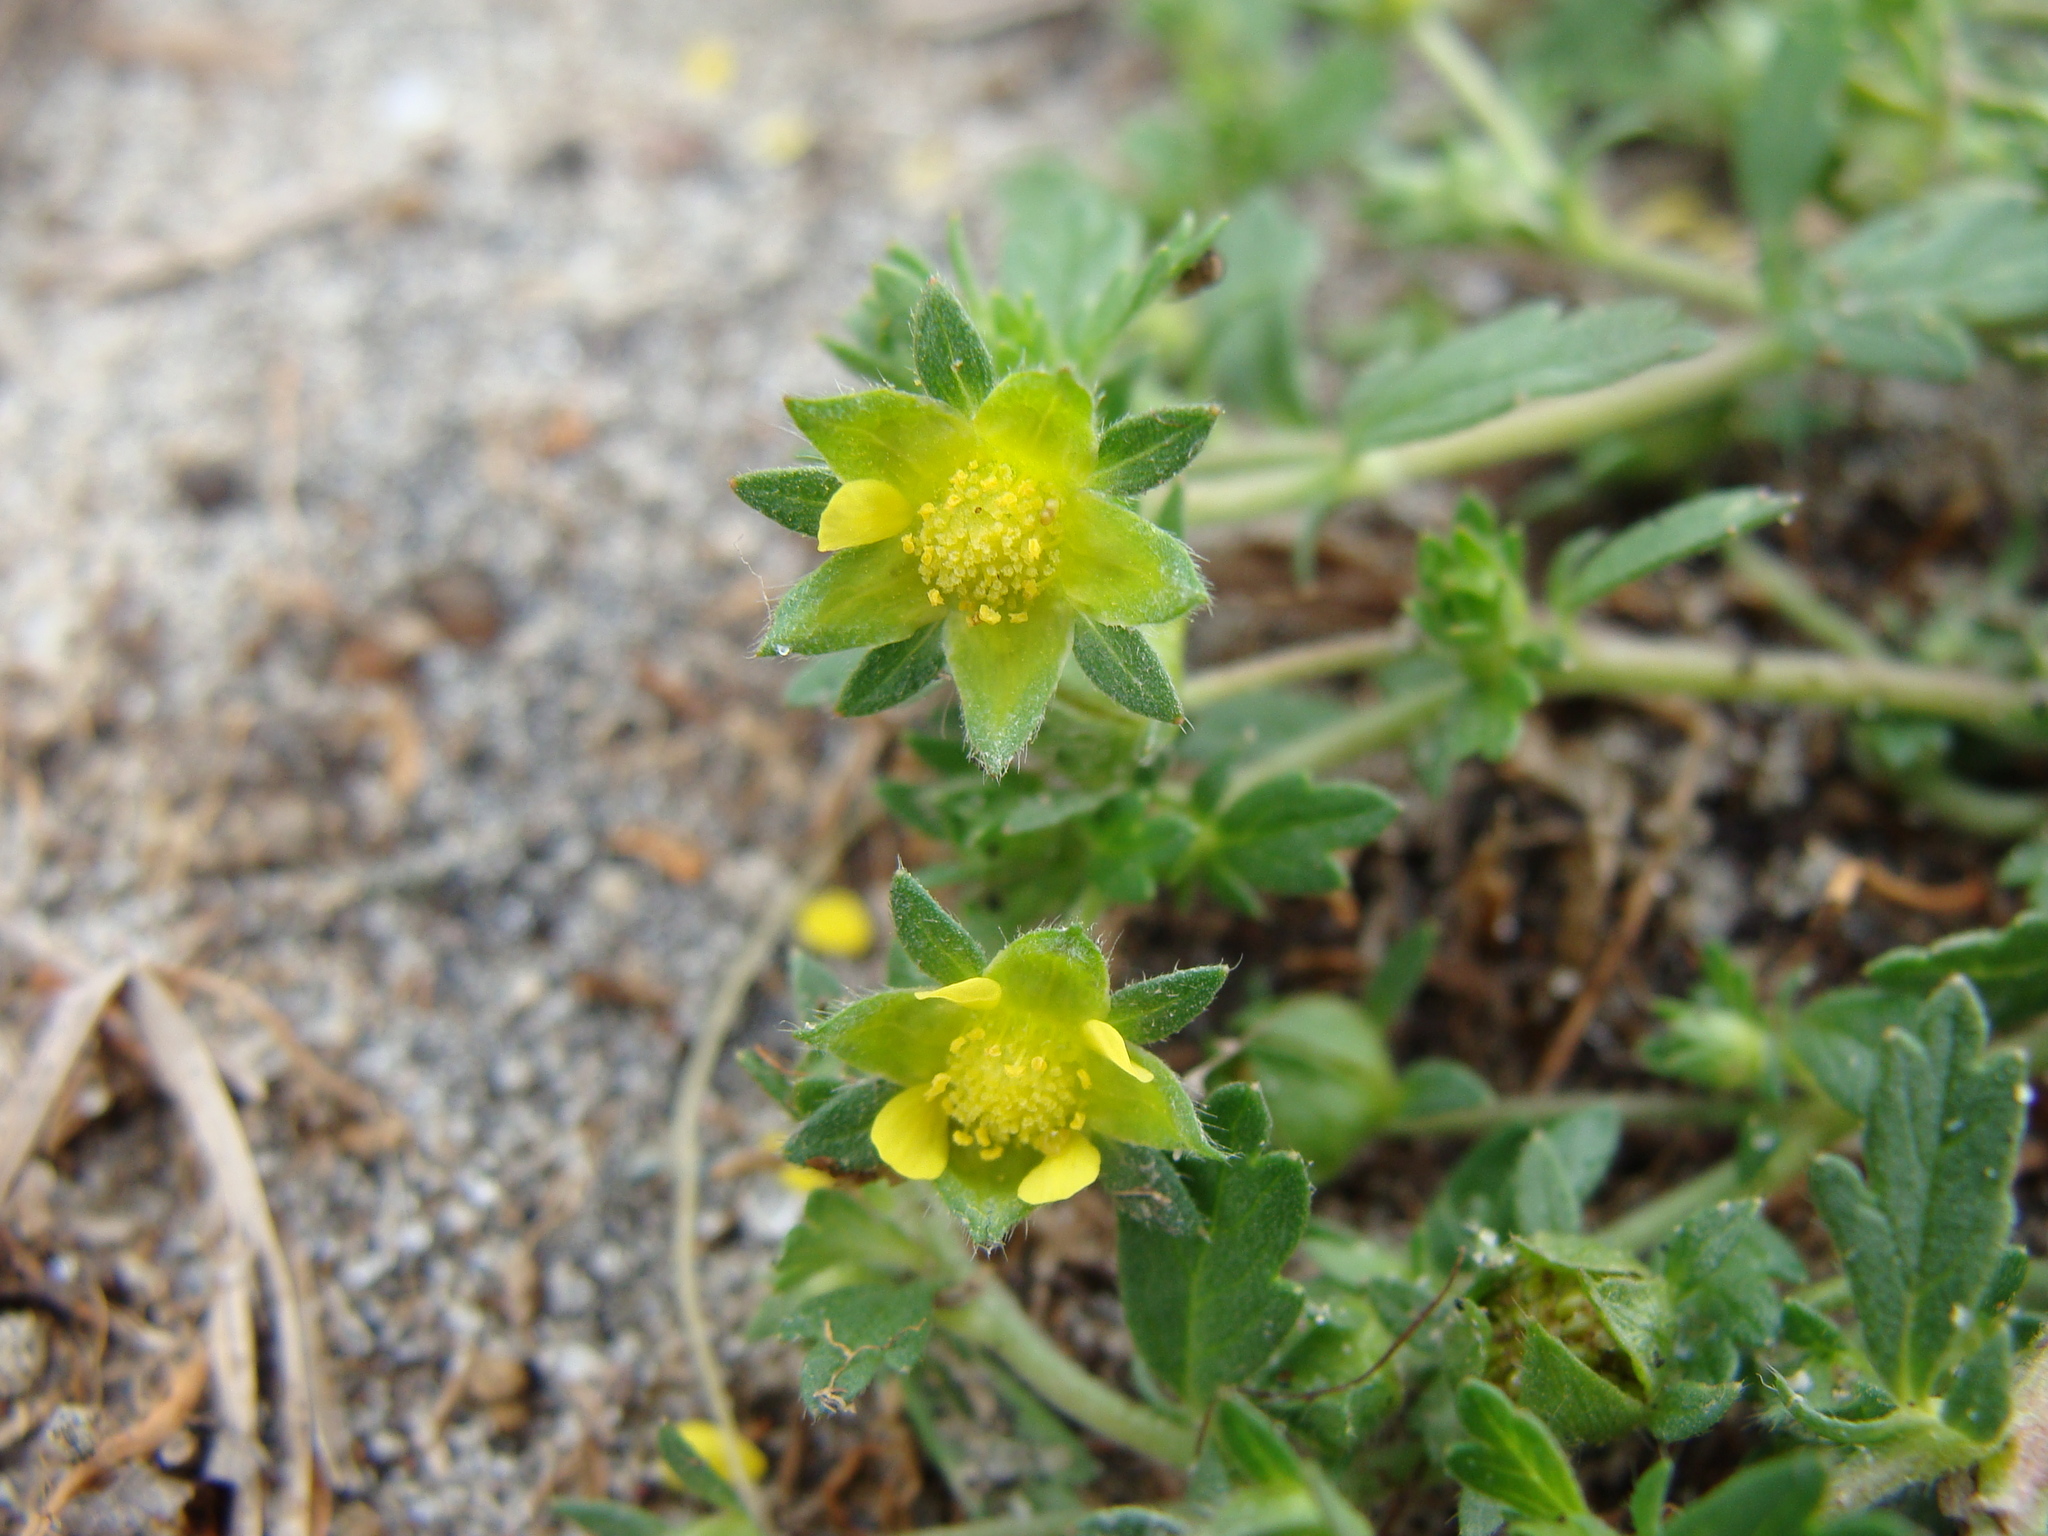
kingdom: Plantae
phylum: Tracheophyta
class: Magnoliopsida
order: Rosales
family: Rosaceae
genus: Potentilla
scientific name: Potentilla rivalis
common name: Brook cinquefoil
